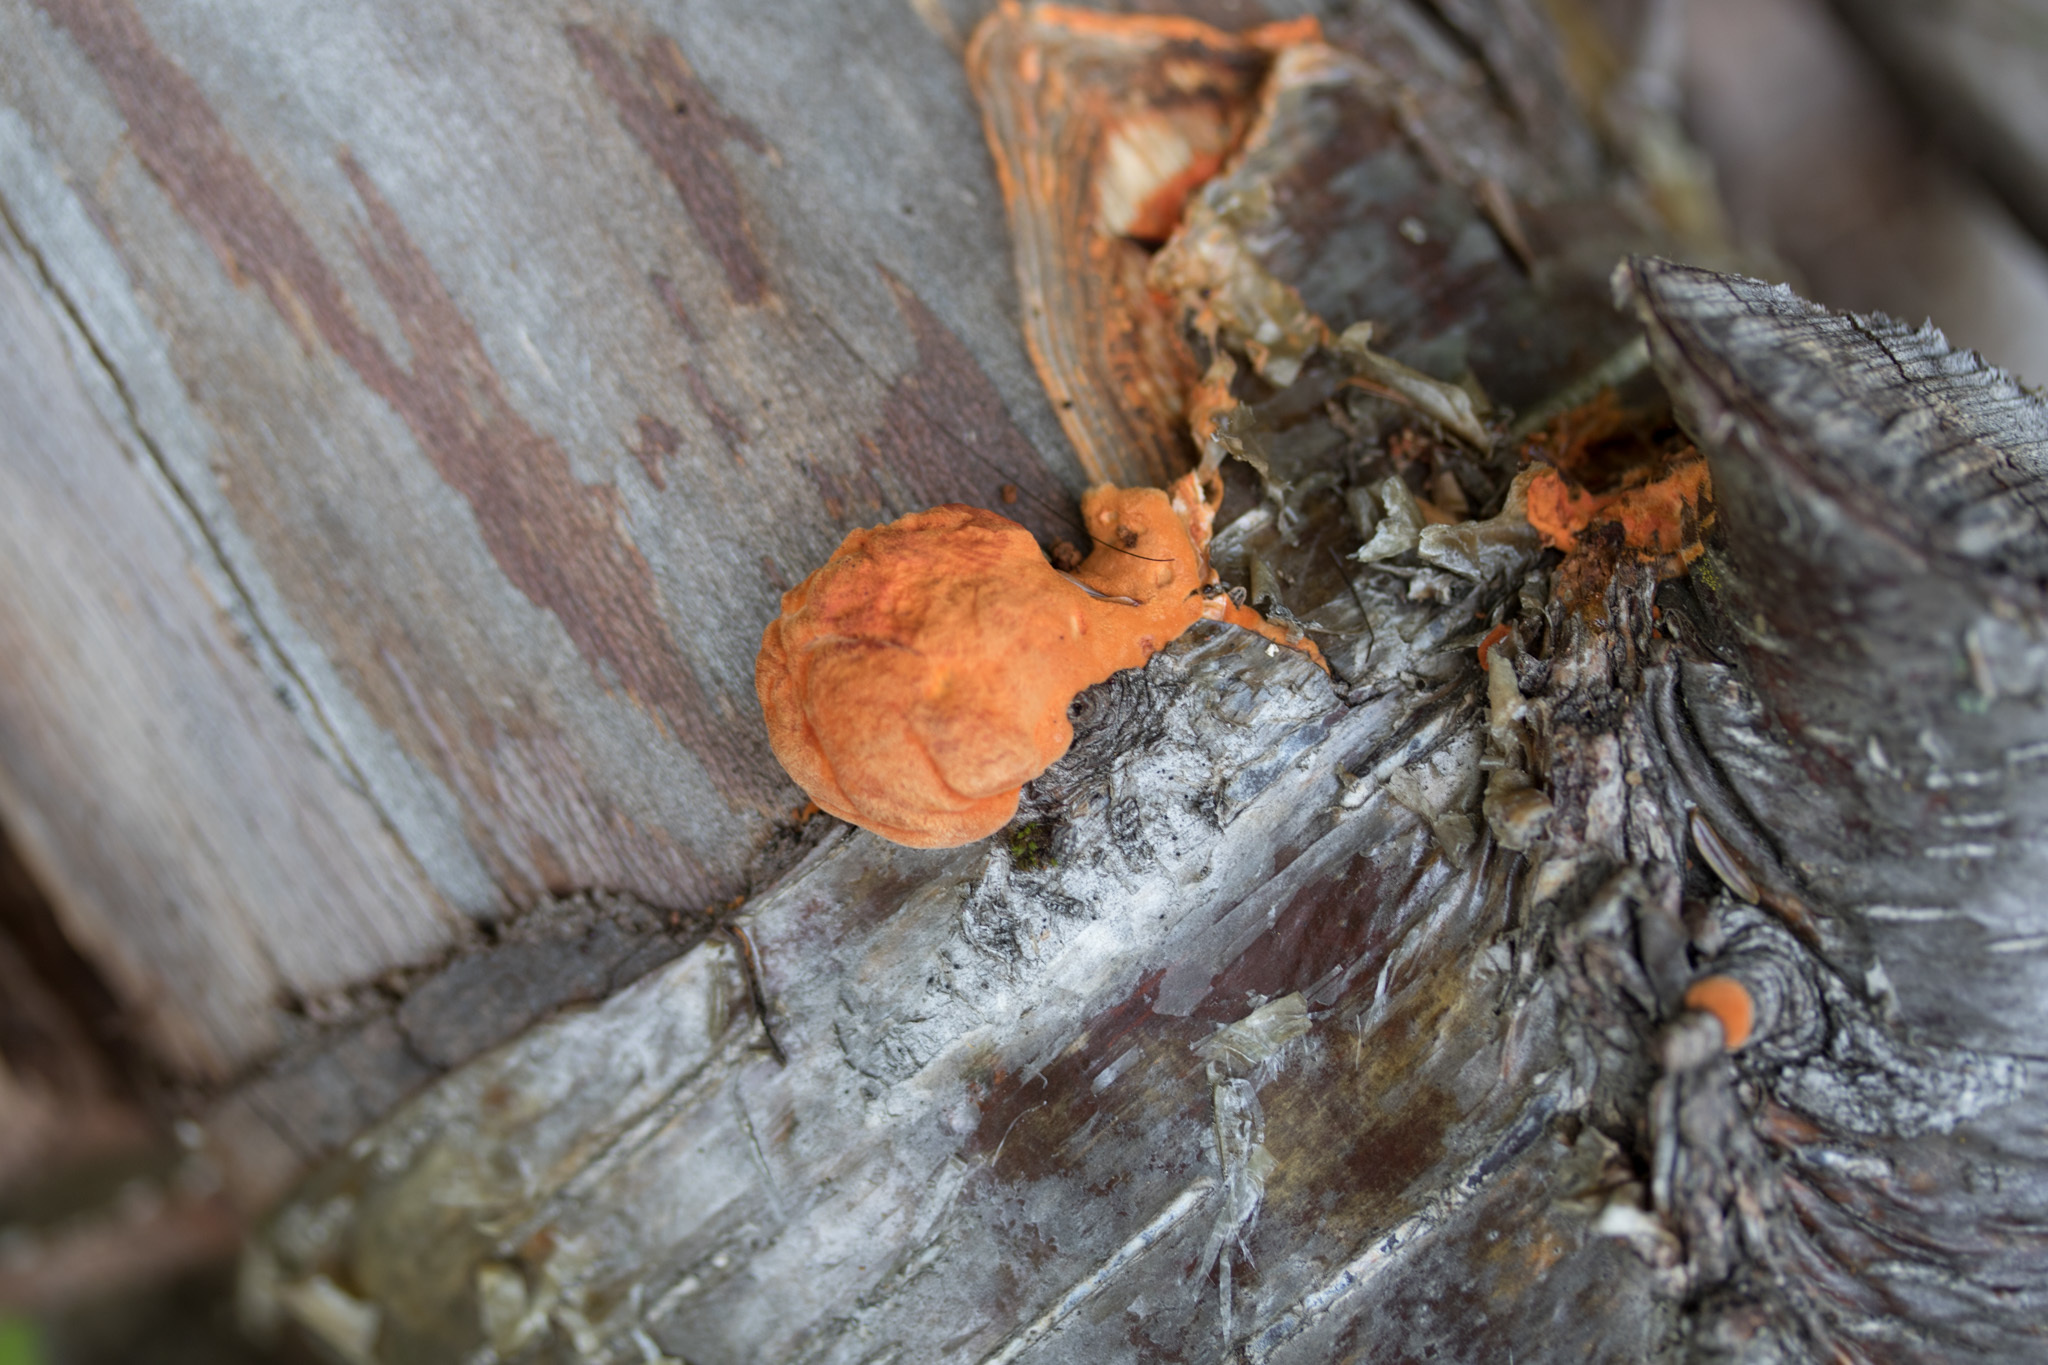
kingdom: Fungi
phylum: Basidiomycota
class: Agaricomycetes
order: Polyporales
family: Polyporaceae
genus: Trametes
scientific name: Trametes cinnabarina
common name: Northern cinnabar polypore
